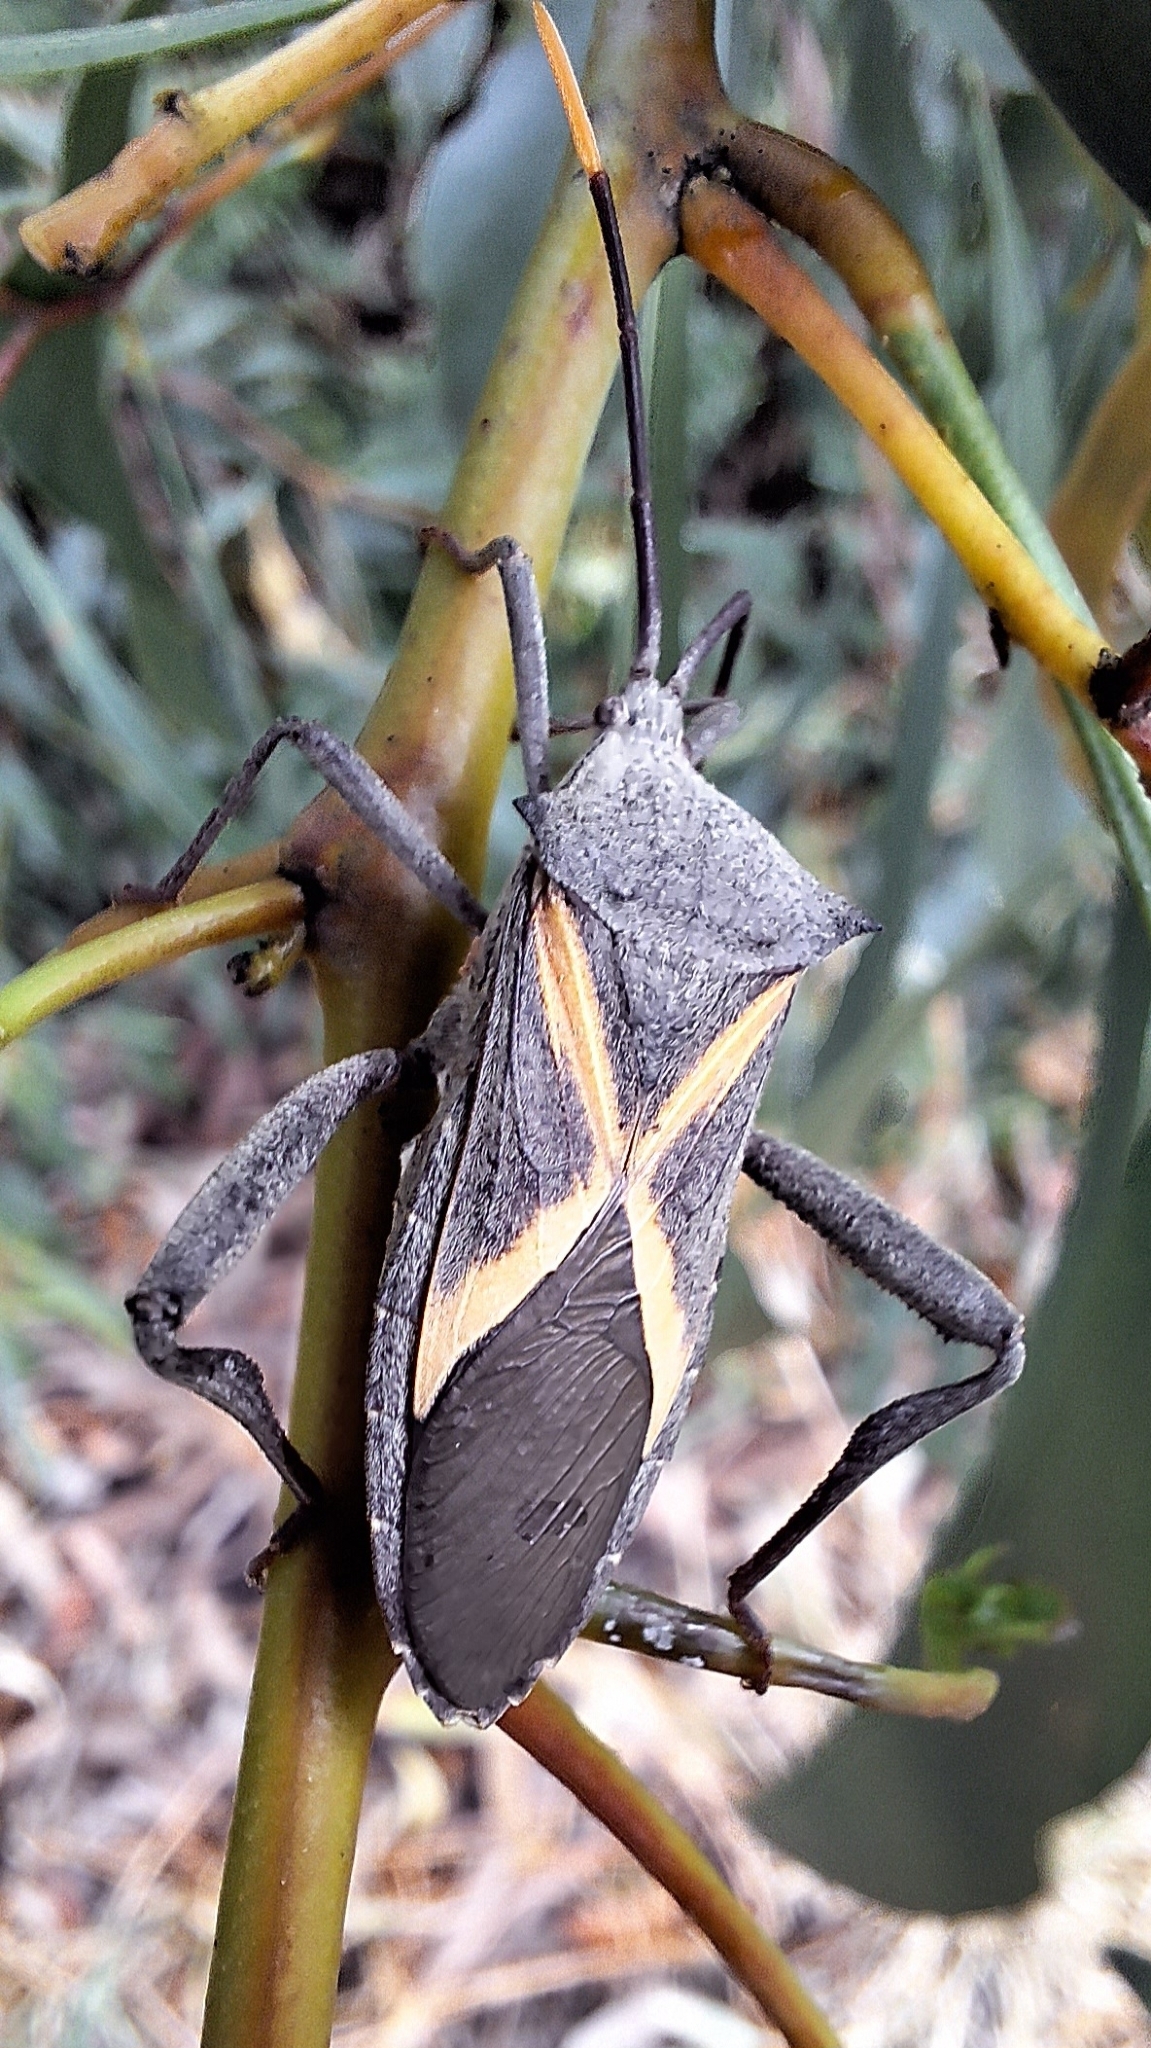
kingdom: Animalia
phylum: Arthropoda
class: Insecta
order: Hemiptera
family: Coreidae
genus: Mictis
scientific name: Mictis profana
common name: Crusader bug
